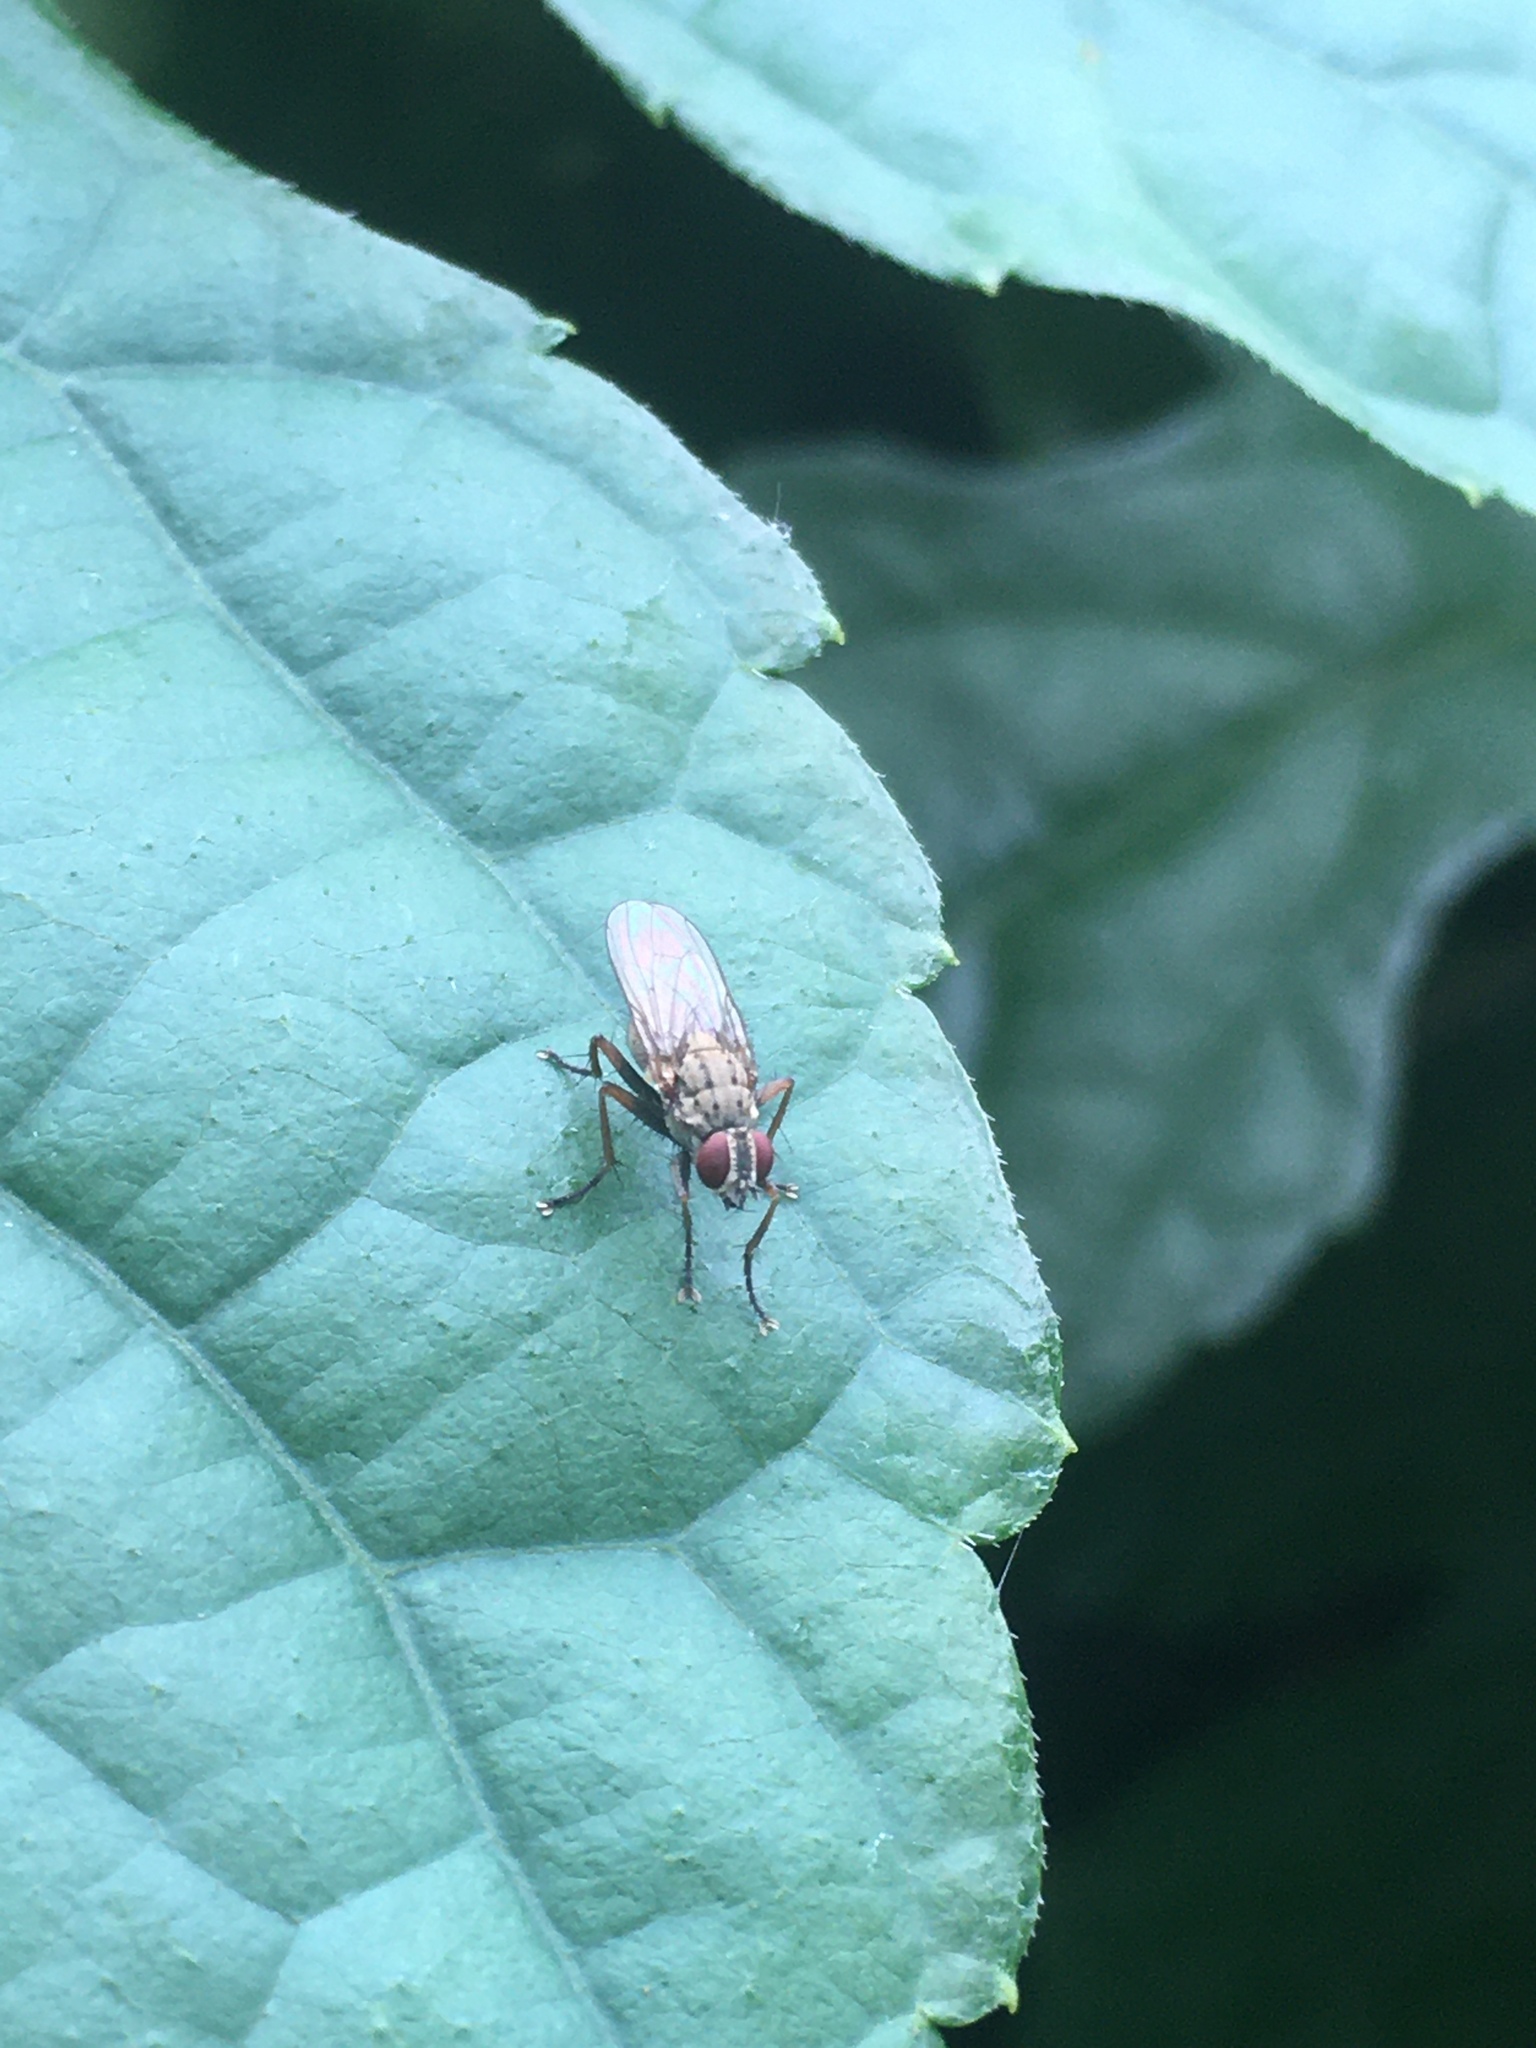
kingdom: Animalia
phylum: Arthropoda
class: Insecta
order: Diptera
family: Muscidae
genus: Coenosia
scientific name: Coenosia tigrina
